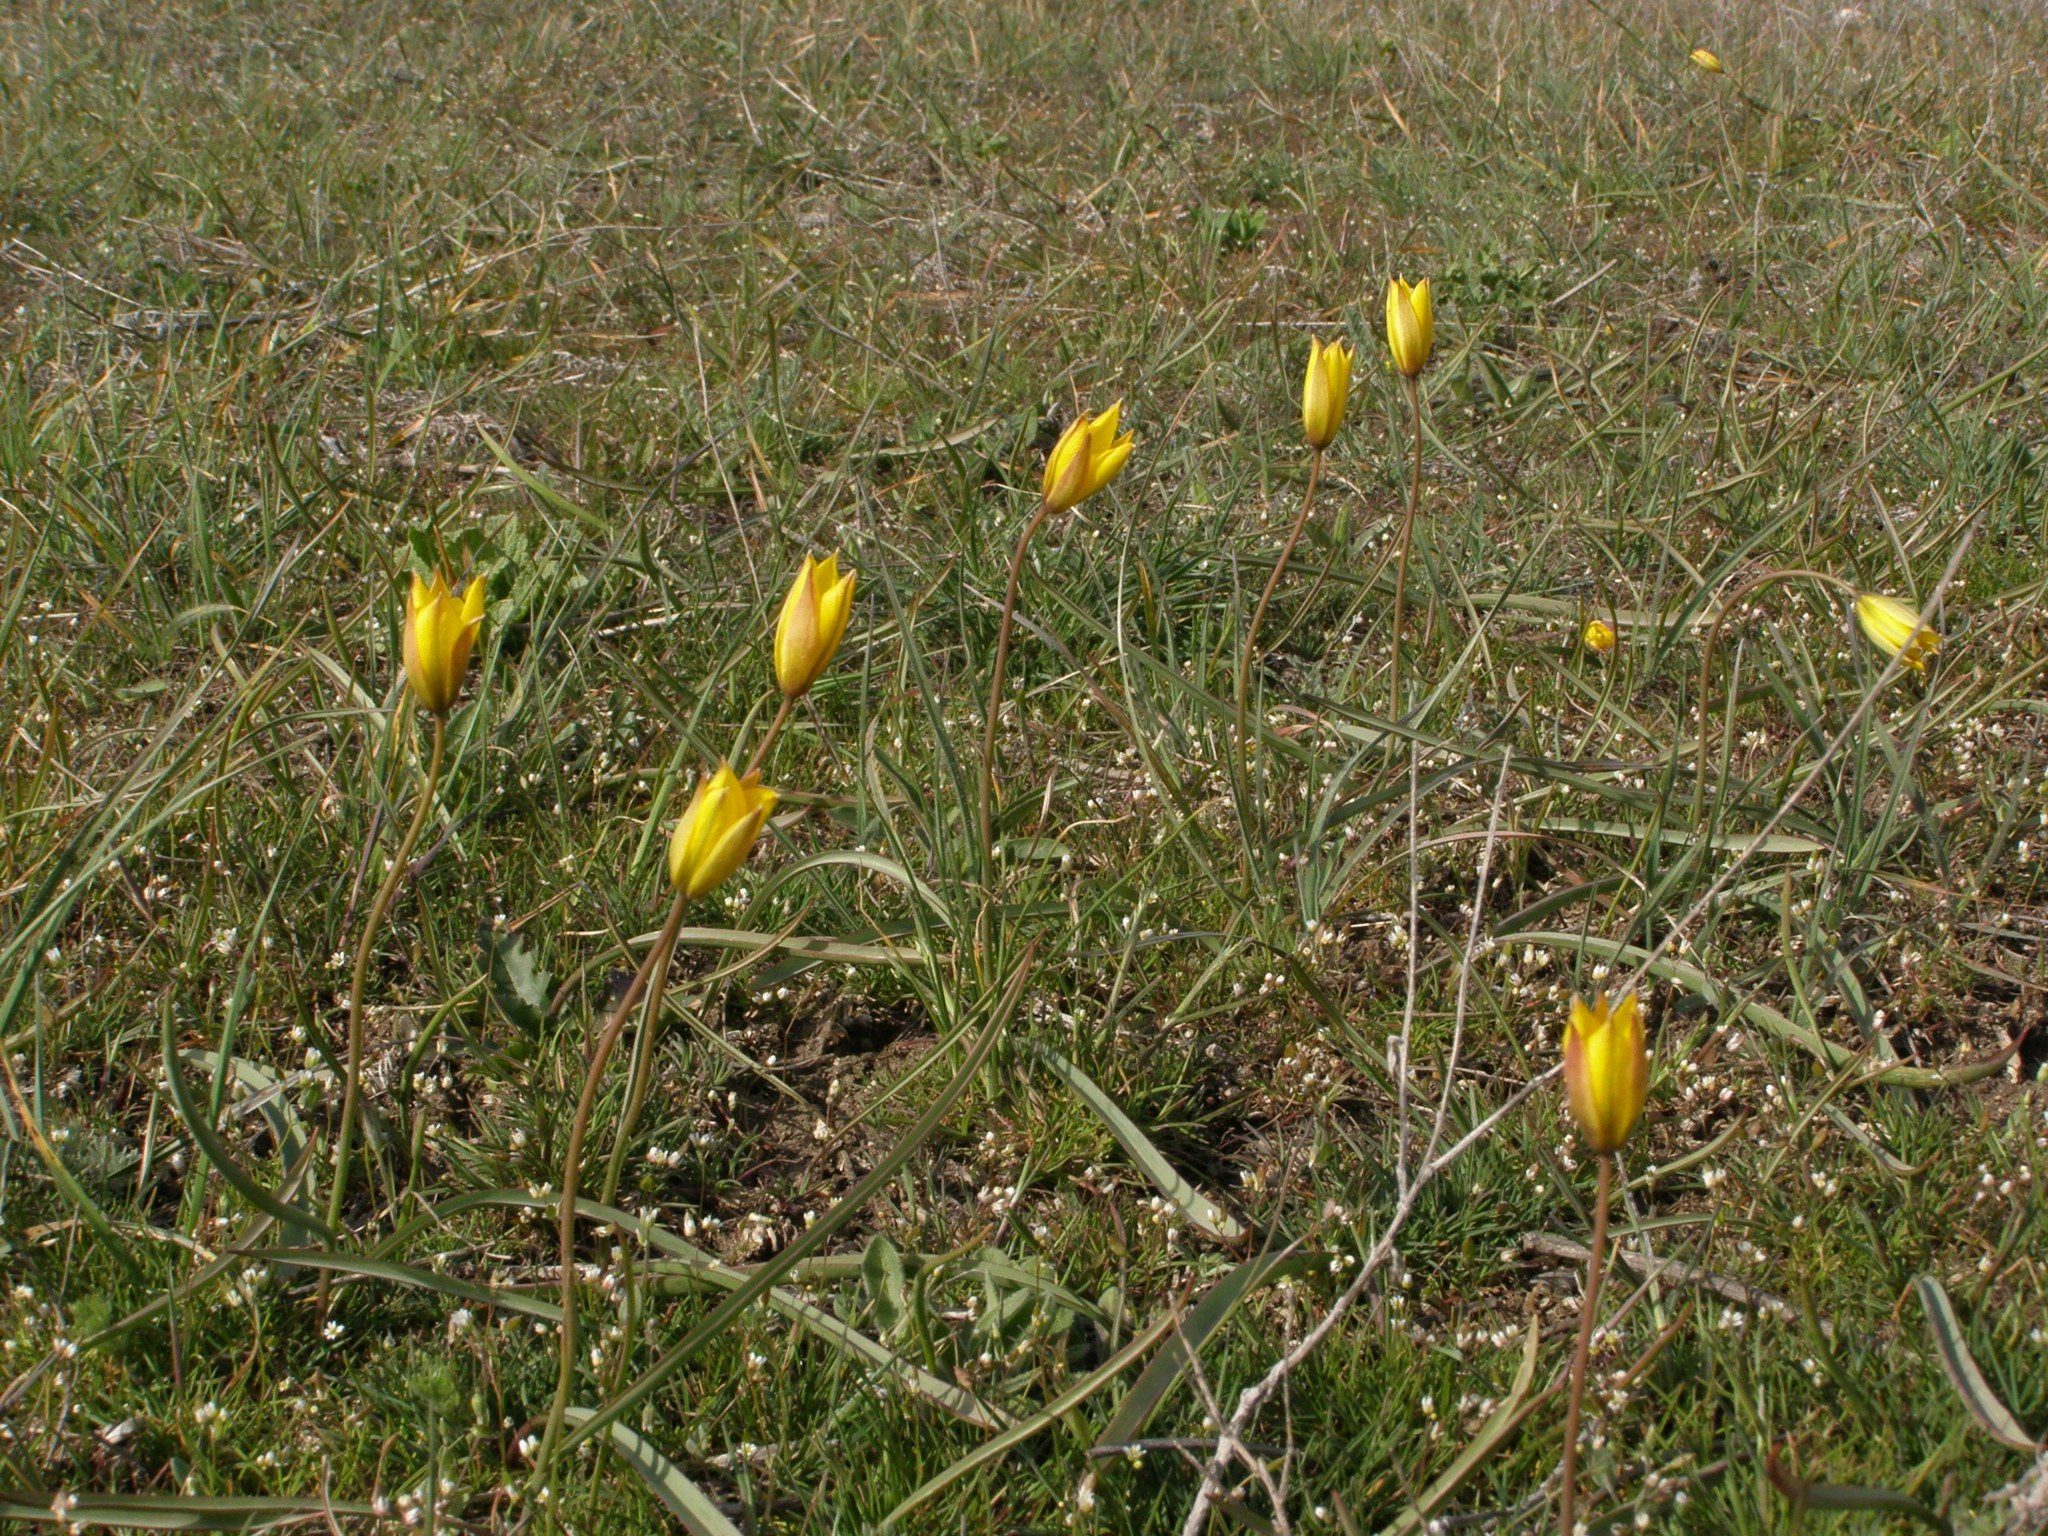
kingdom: Plantae
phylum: Tracheophyta
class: Liliopsida
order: Liliales
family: Liliaceae
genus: Tulipa
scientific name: Tulipa sylvestris
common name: Wild tulip
